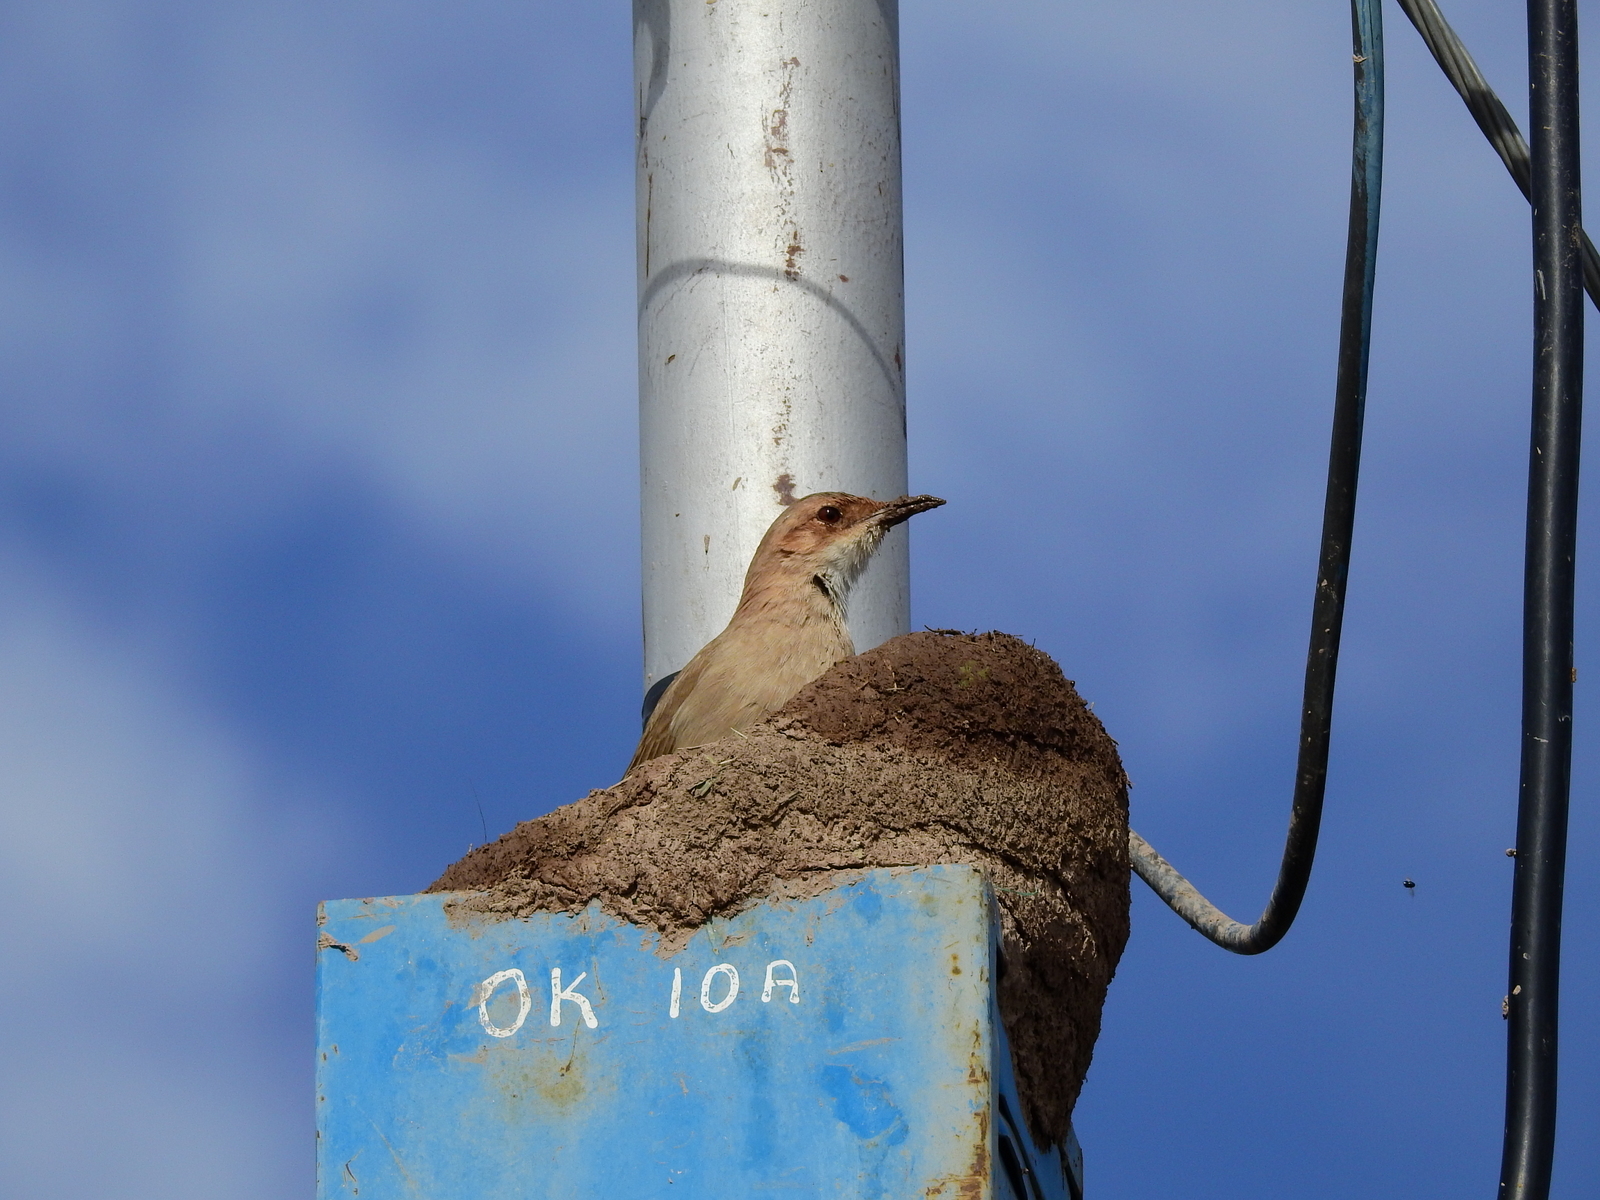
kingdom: Animalia
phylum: Chordata
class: Aves
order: Passeriformes
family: Furnariidae
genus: Furnarius
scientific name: Furnarius rufus
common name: Rufous hornero
